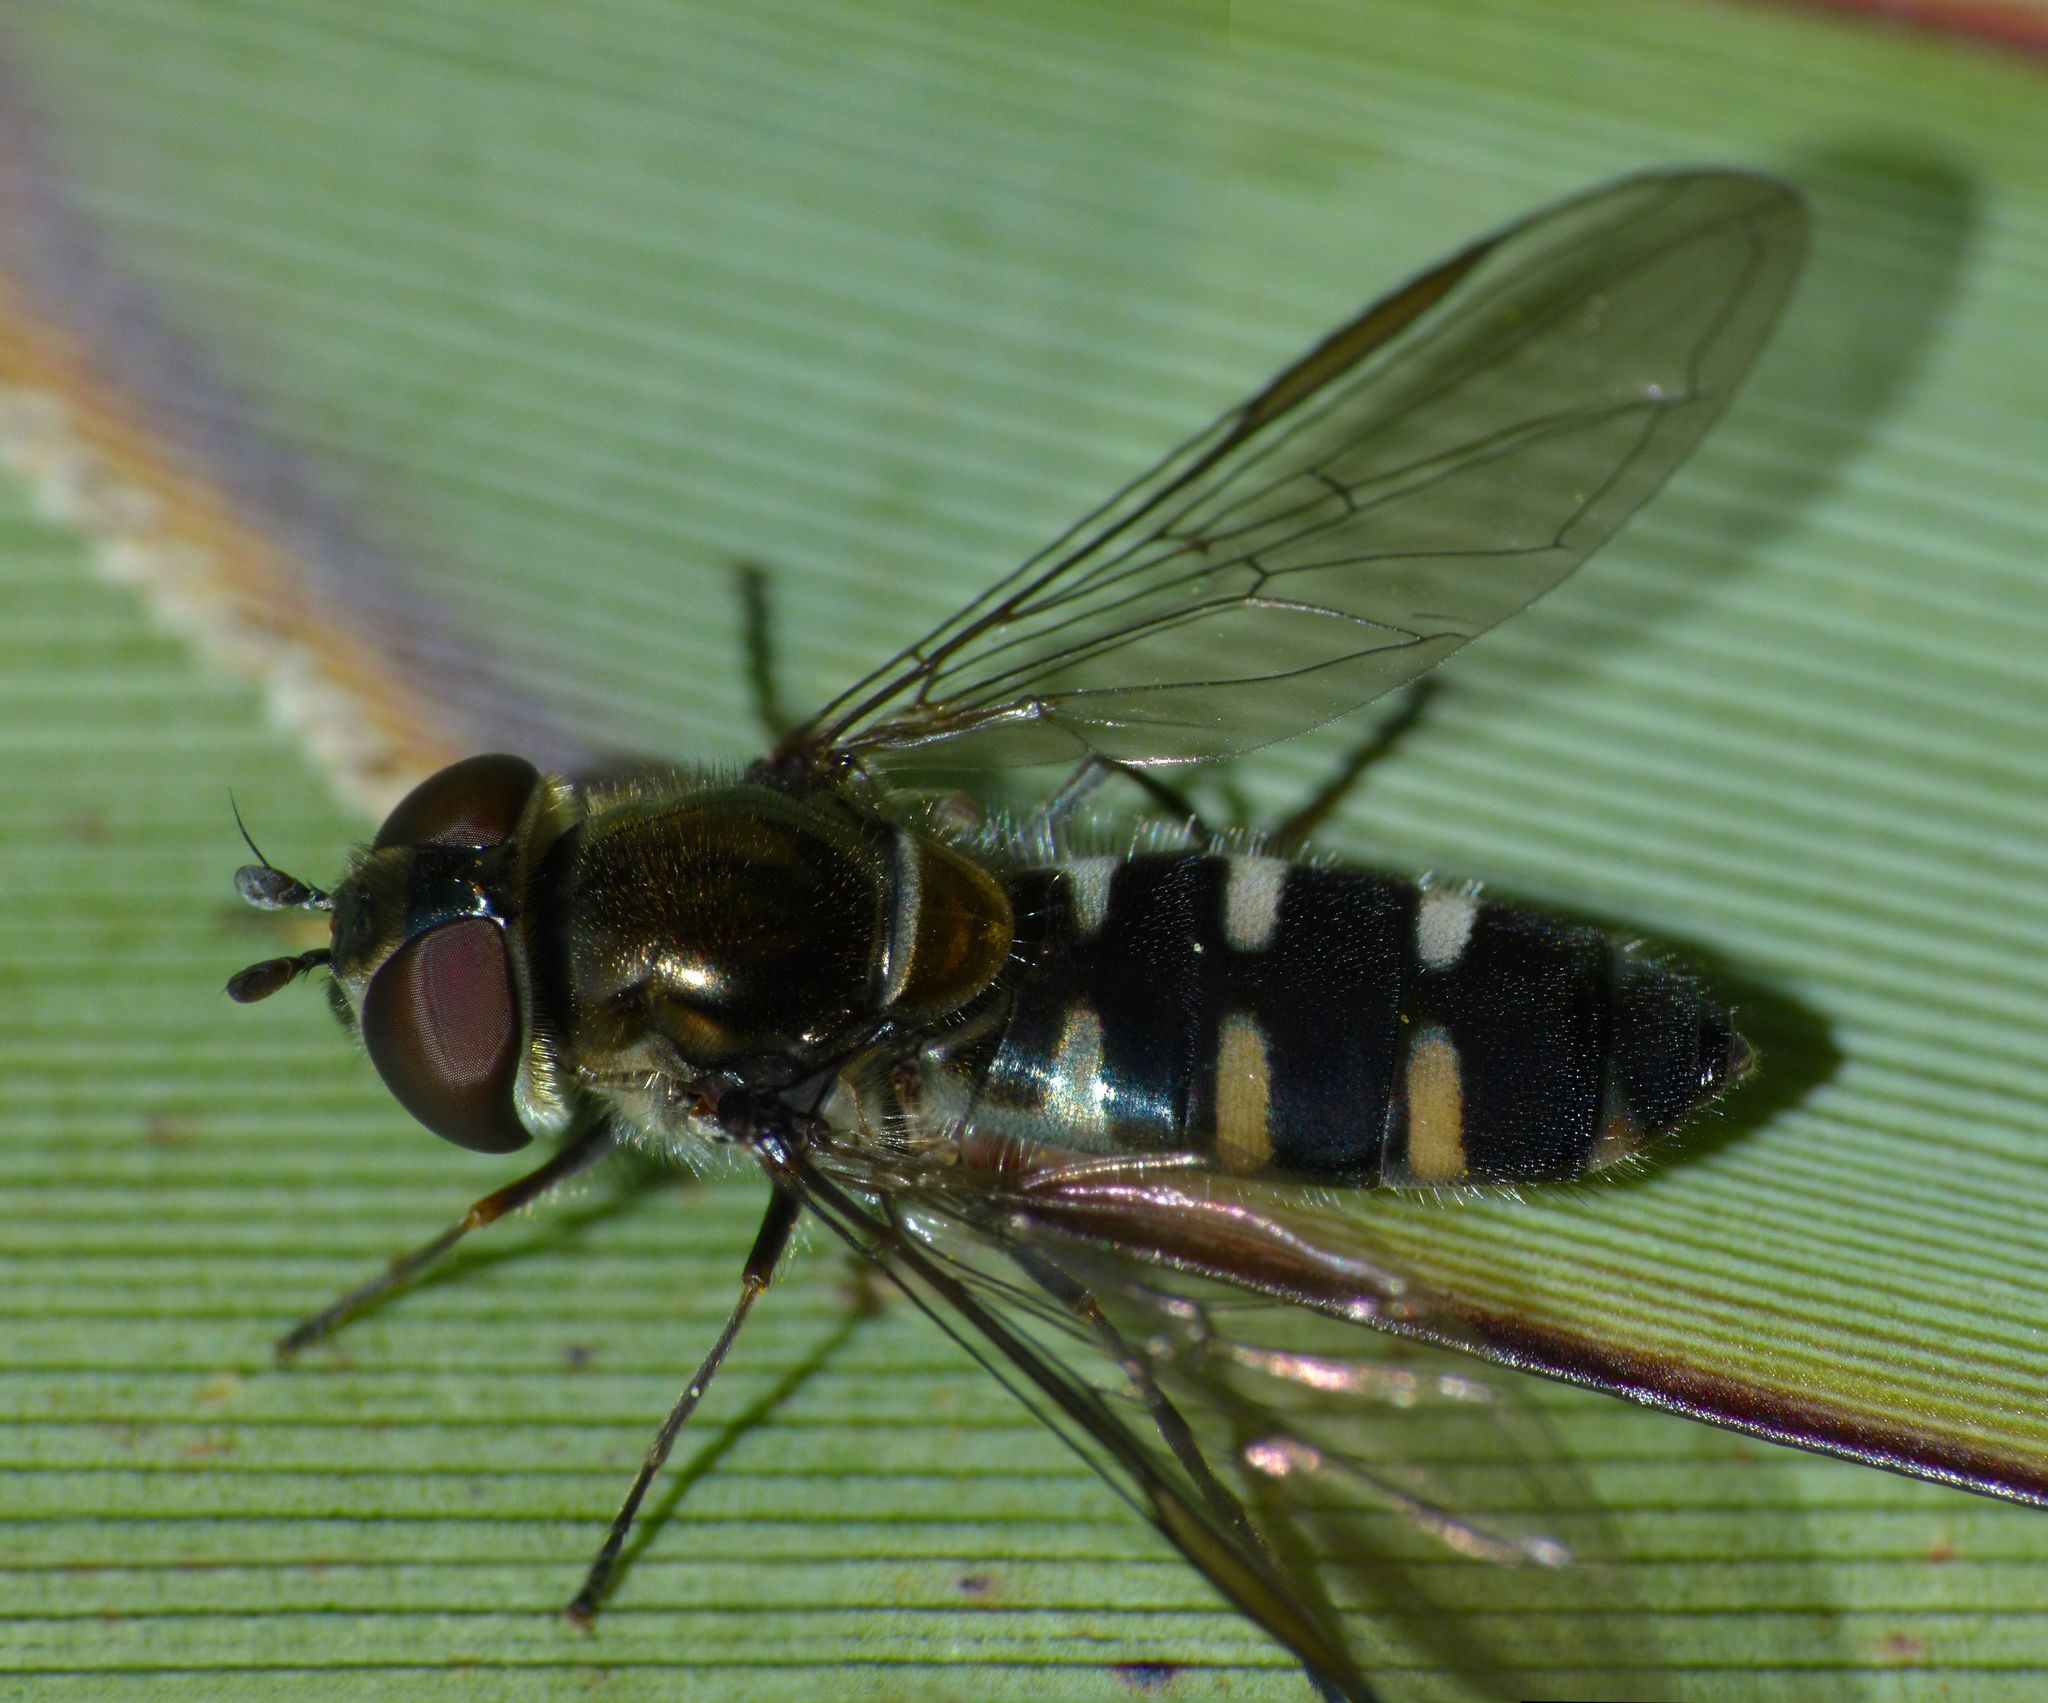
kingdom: Animalia
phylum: Arthropoda
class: Insecta
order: Diptera
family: Syrphidae
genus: Melangyna
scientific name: Melangyna novaezelandiae
